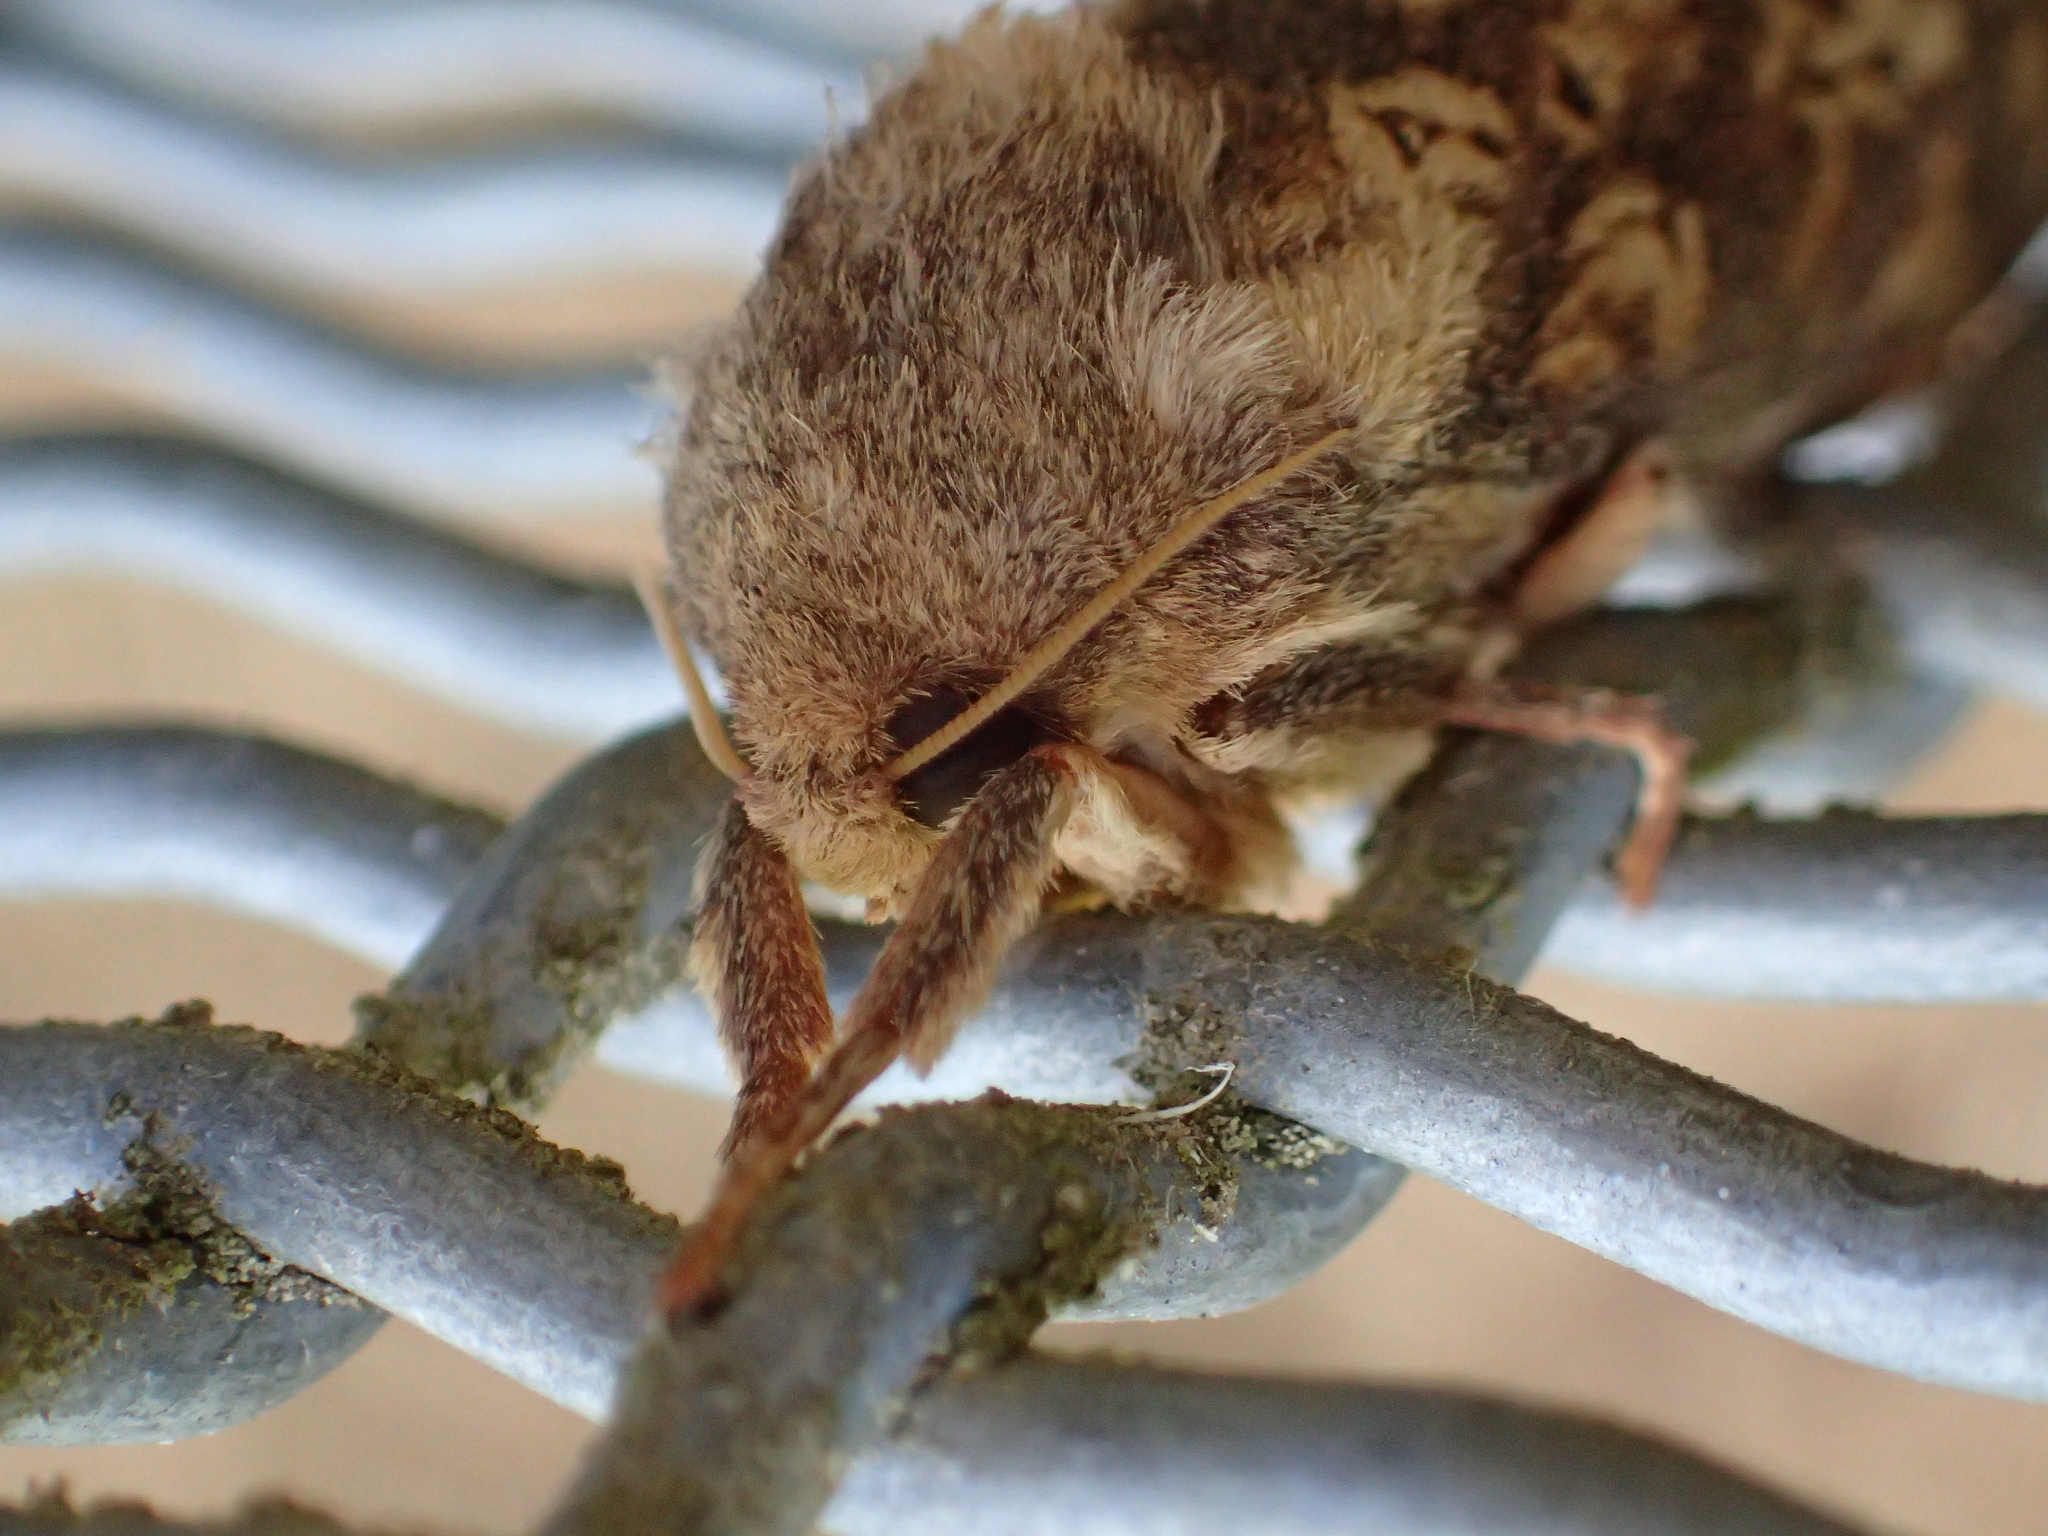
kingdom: Animalia
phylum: Arthropoda
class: Insecta
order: Lepidoptera
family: Hepialidae
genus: Dumbletonius
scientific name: Dumbletonius unimaculata
